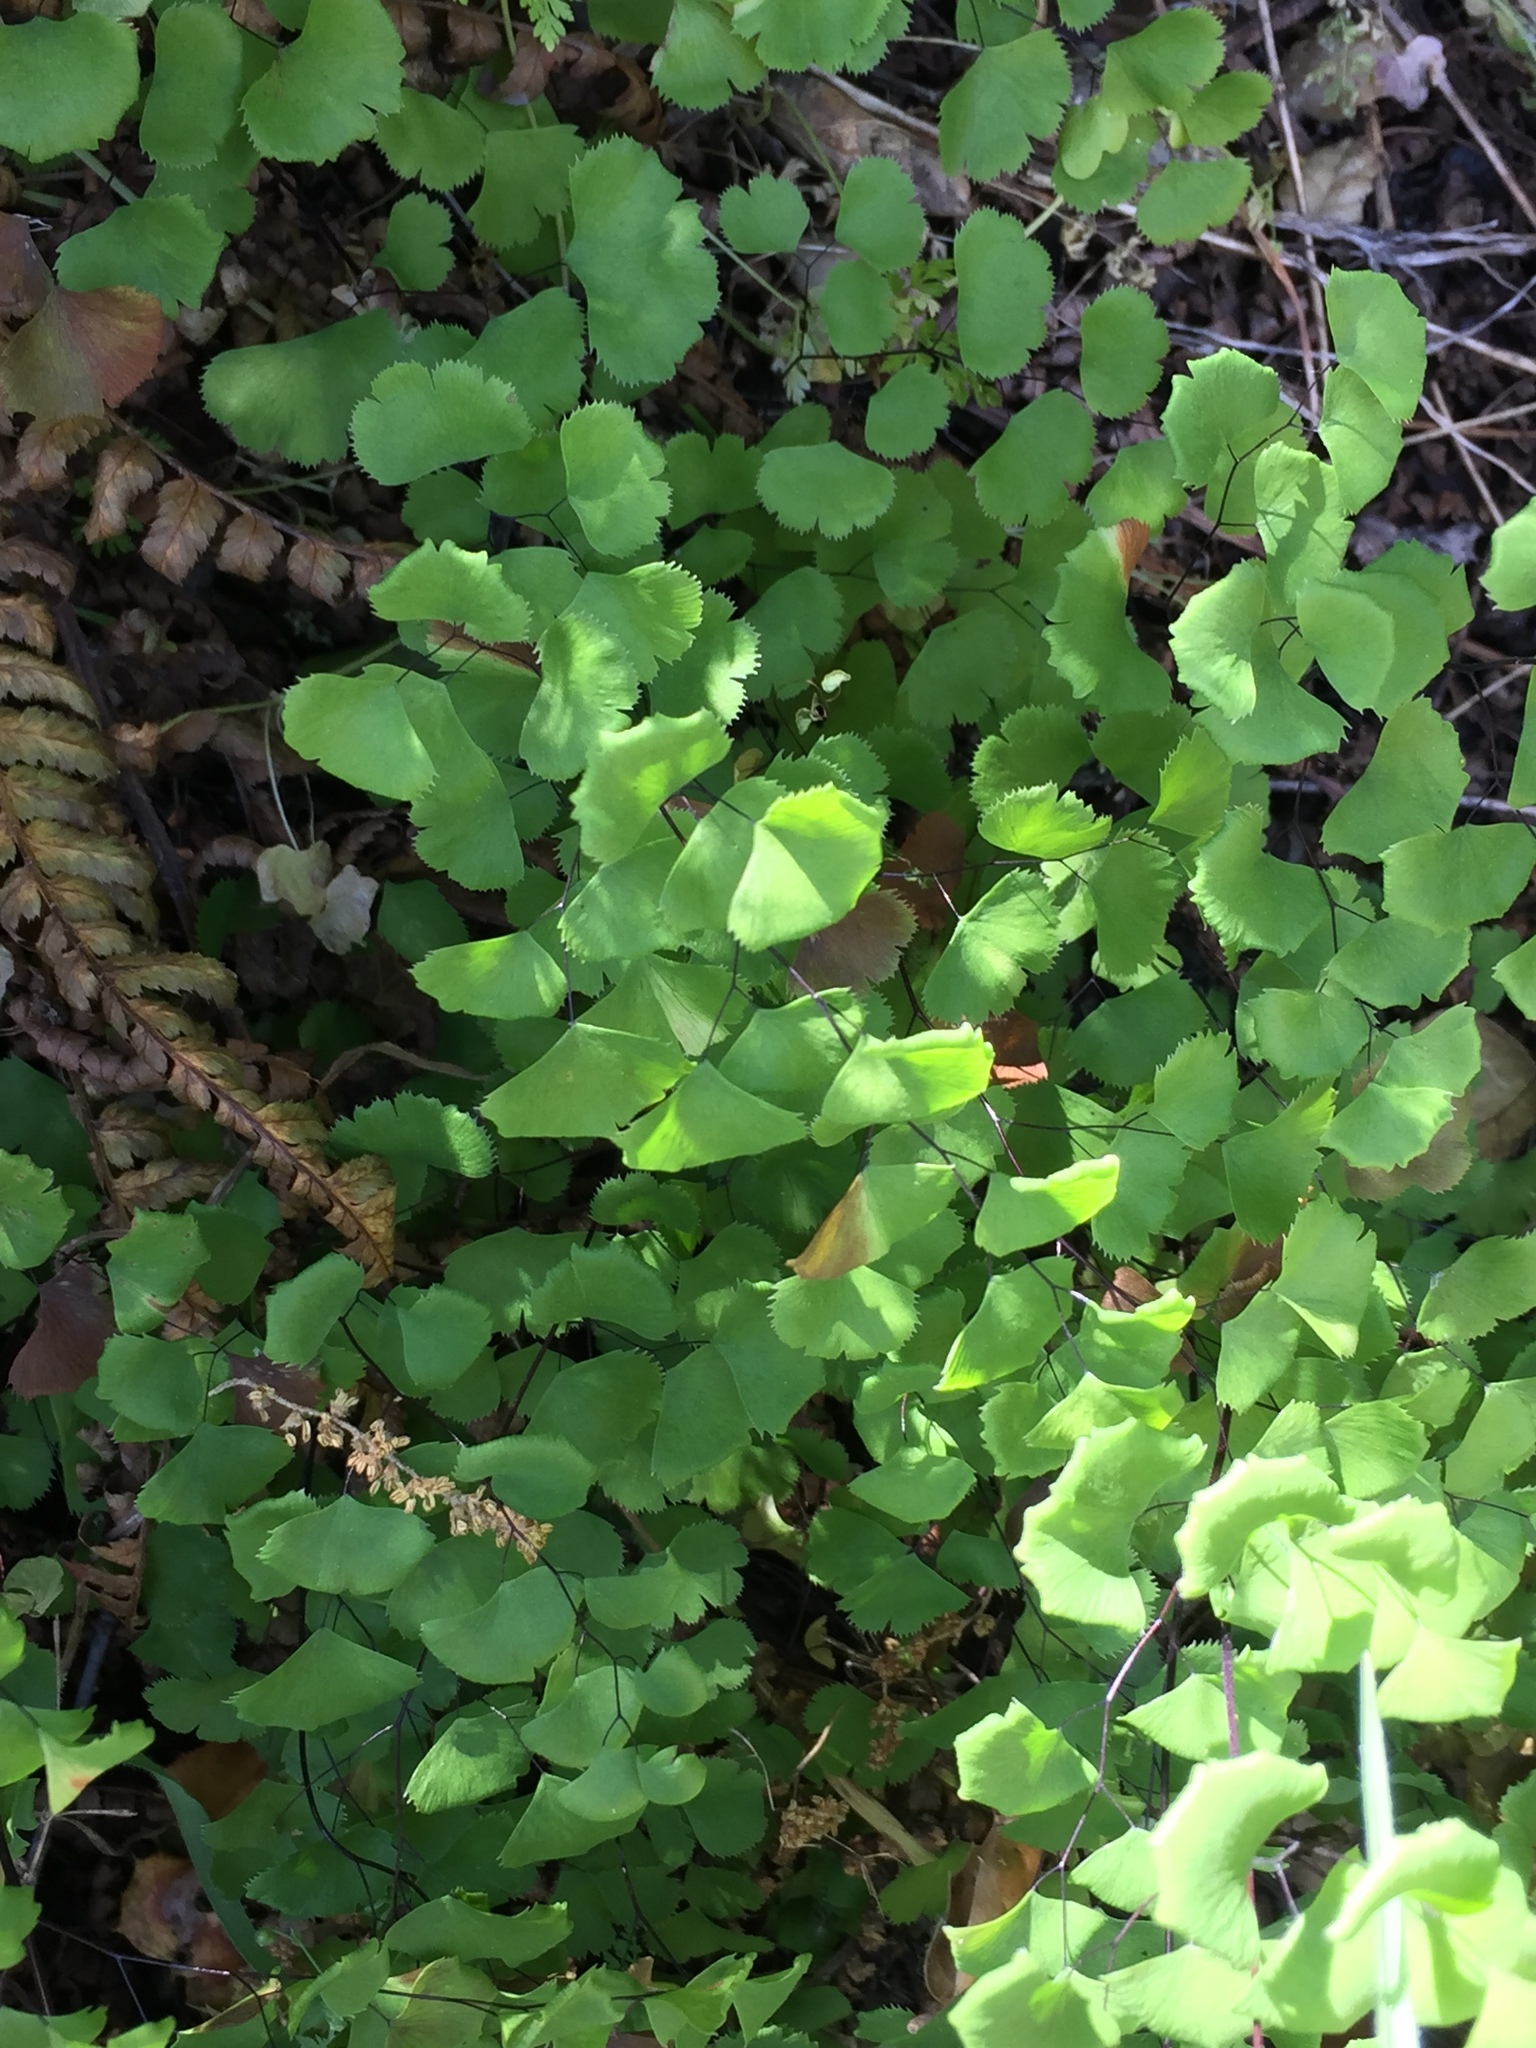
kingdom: Plantae
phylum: Tracheophyta
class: Polypodiopsida
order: Polypodiales
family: Pteridaceae
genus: Adiantum
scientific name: Adiantum jordanii
